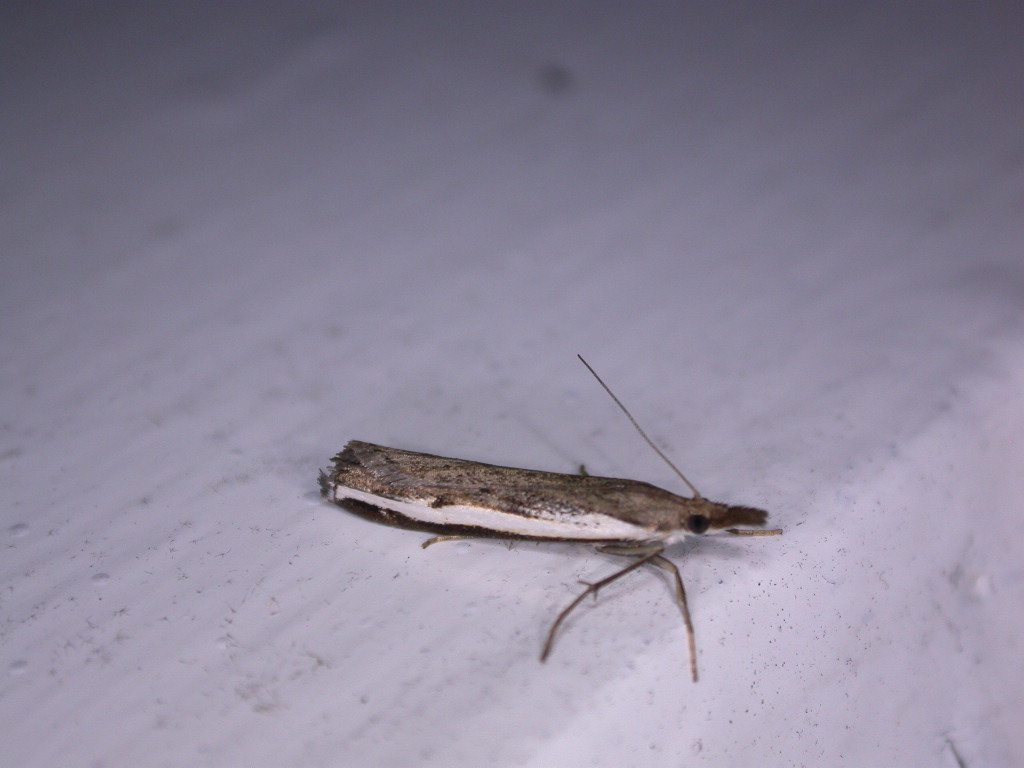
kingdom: Animalia
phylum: Arthropoda
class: Insecta
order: Lepidoptera
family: Crambidae
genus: Orocrambus
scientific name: Orocrambus flexuosellus
